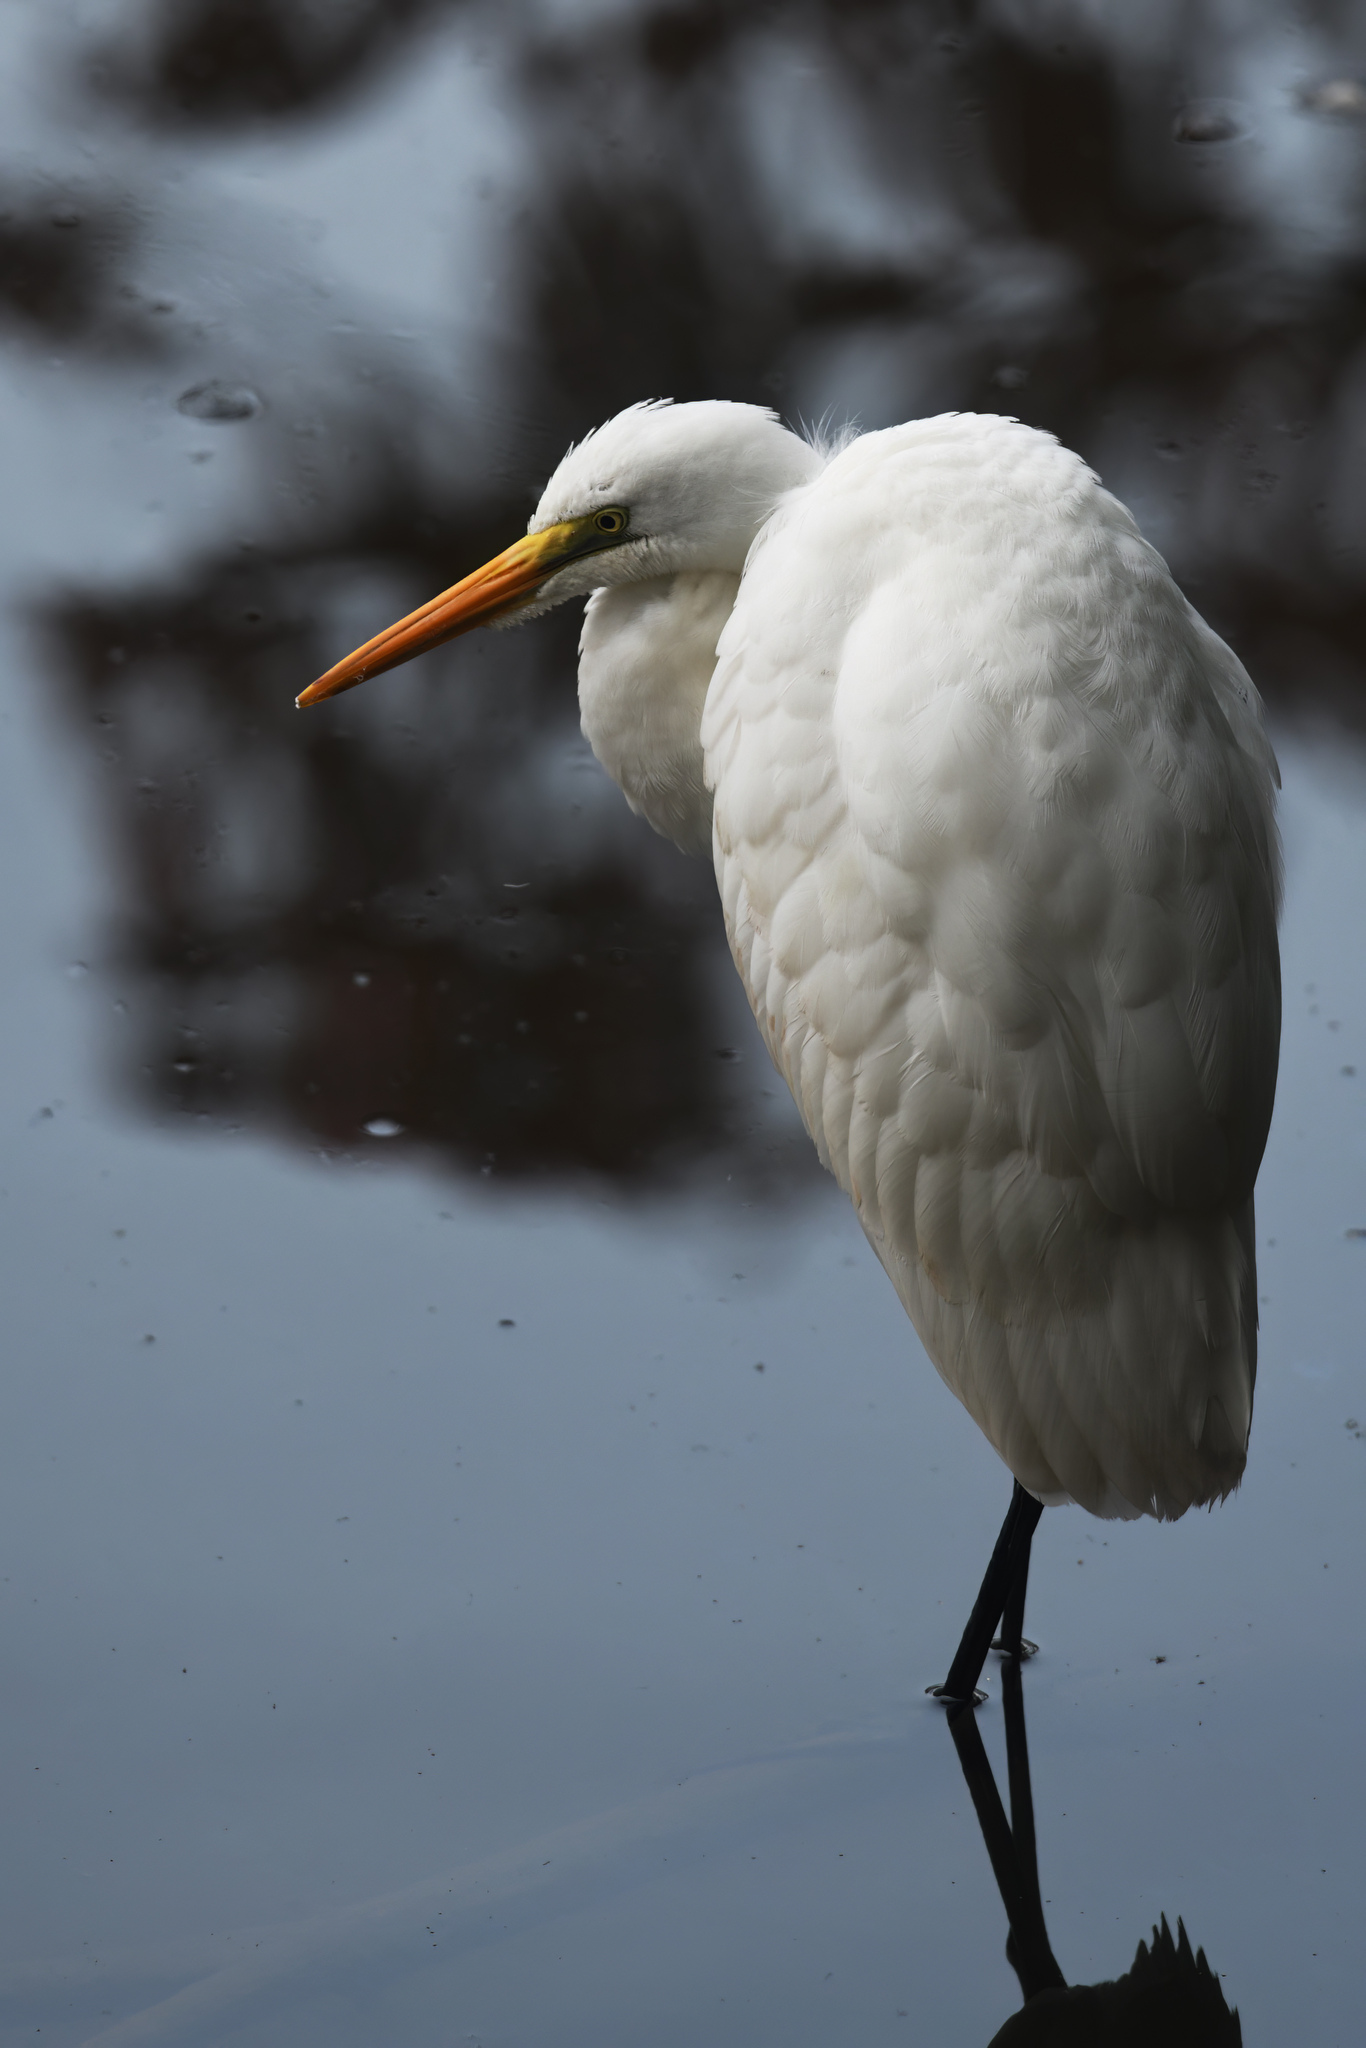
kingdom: Animalia
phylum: Chordata
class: Aves
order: Pelecaniformes
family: Ardeidae
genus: Ardea
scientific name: Ardea alba
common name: Great egret
